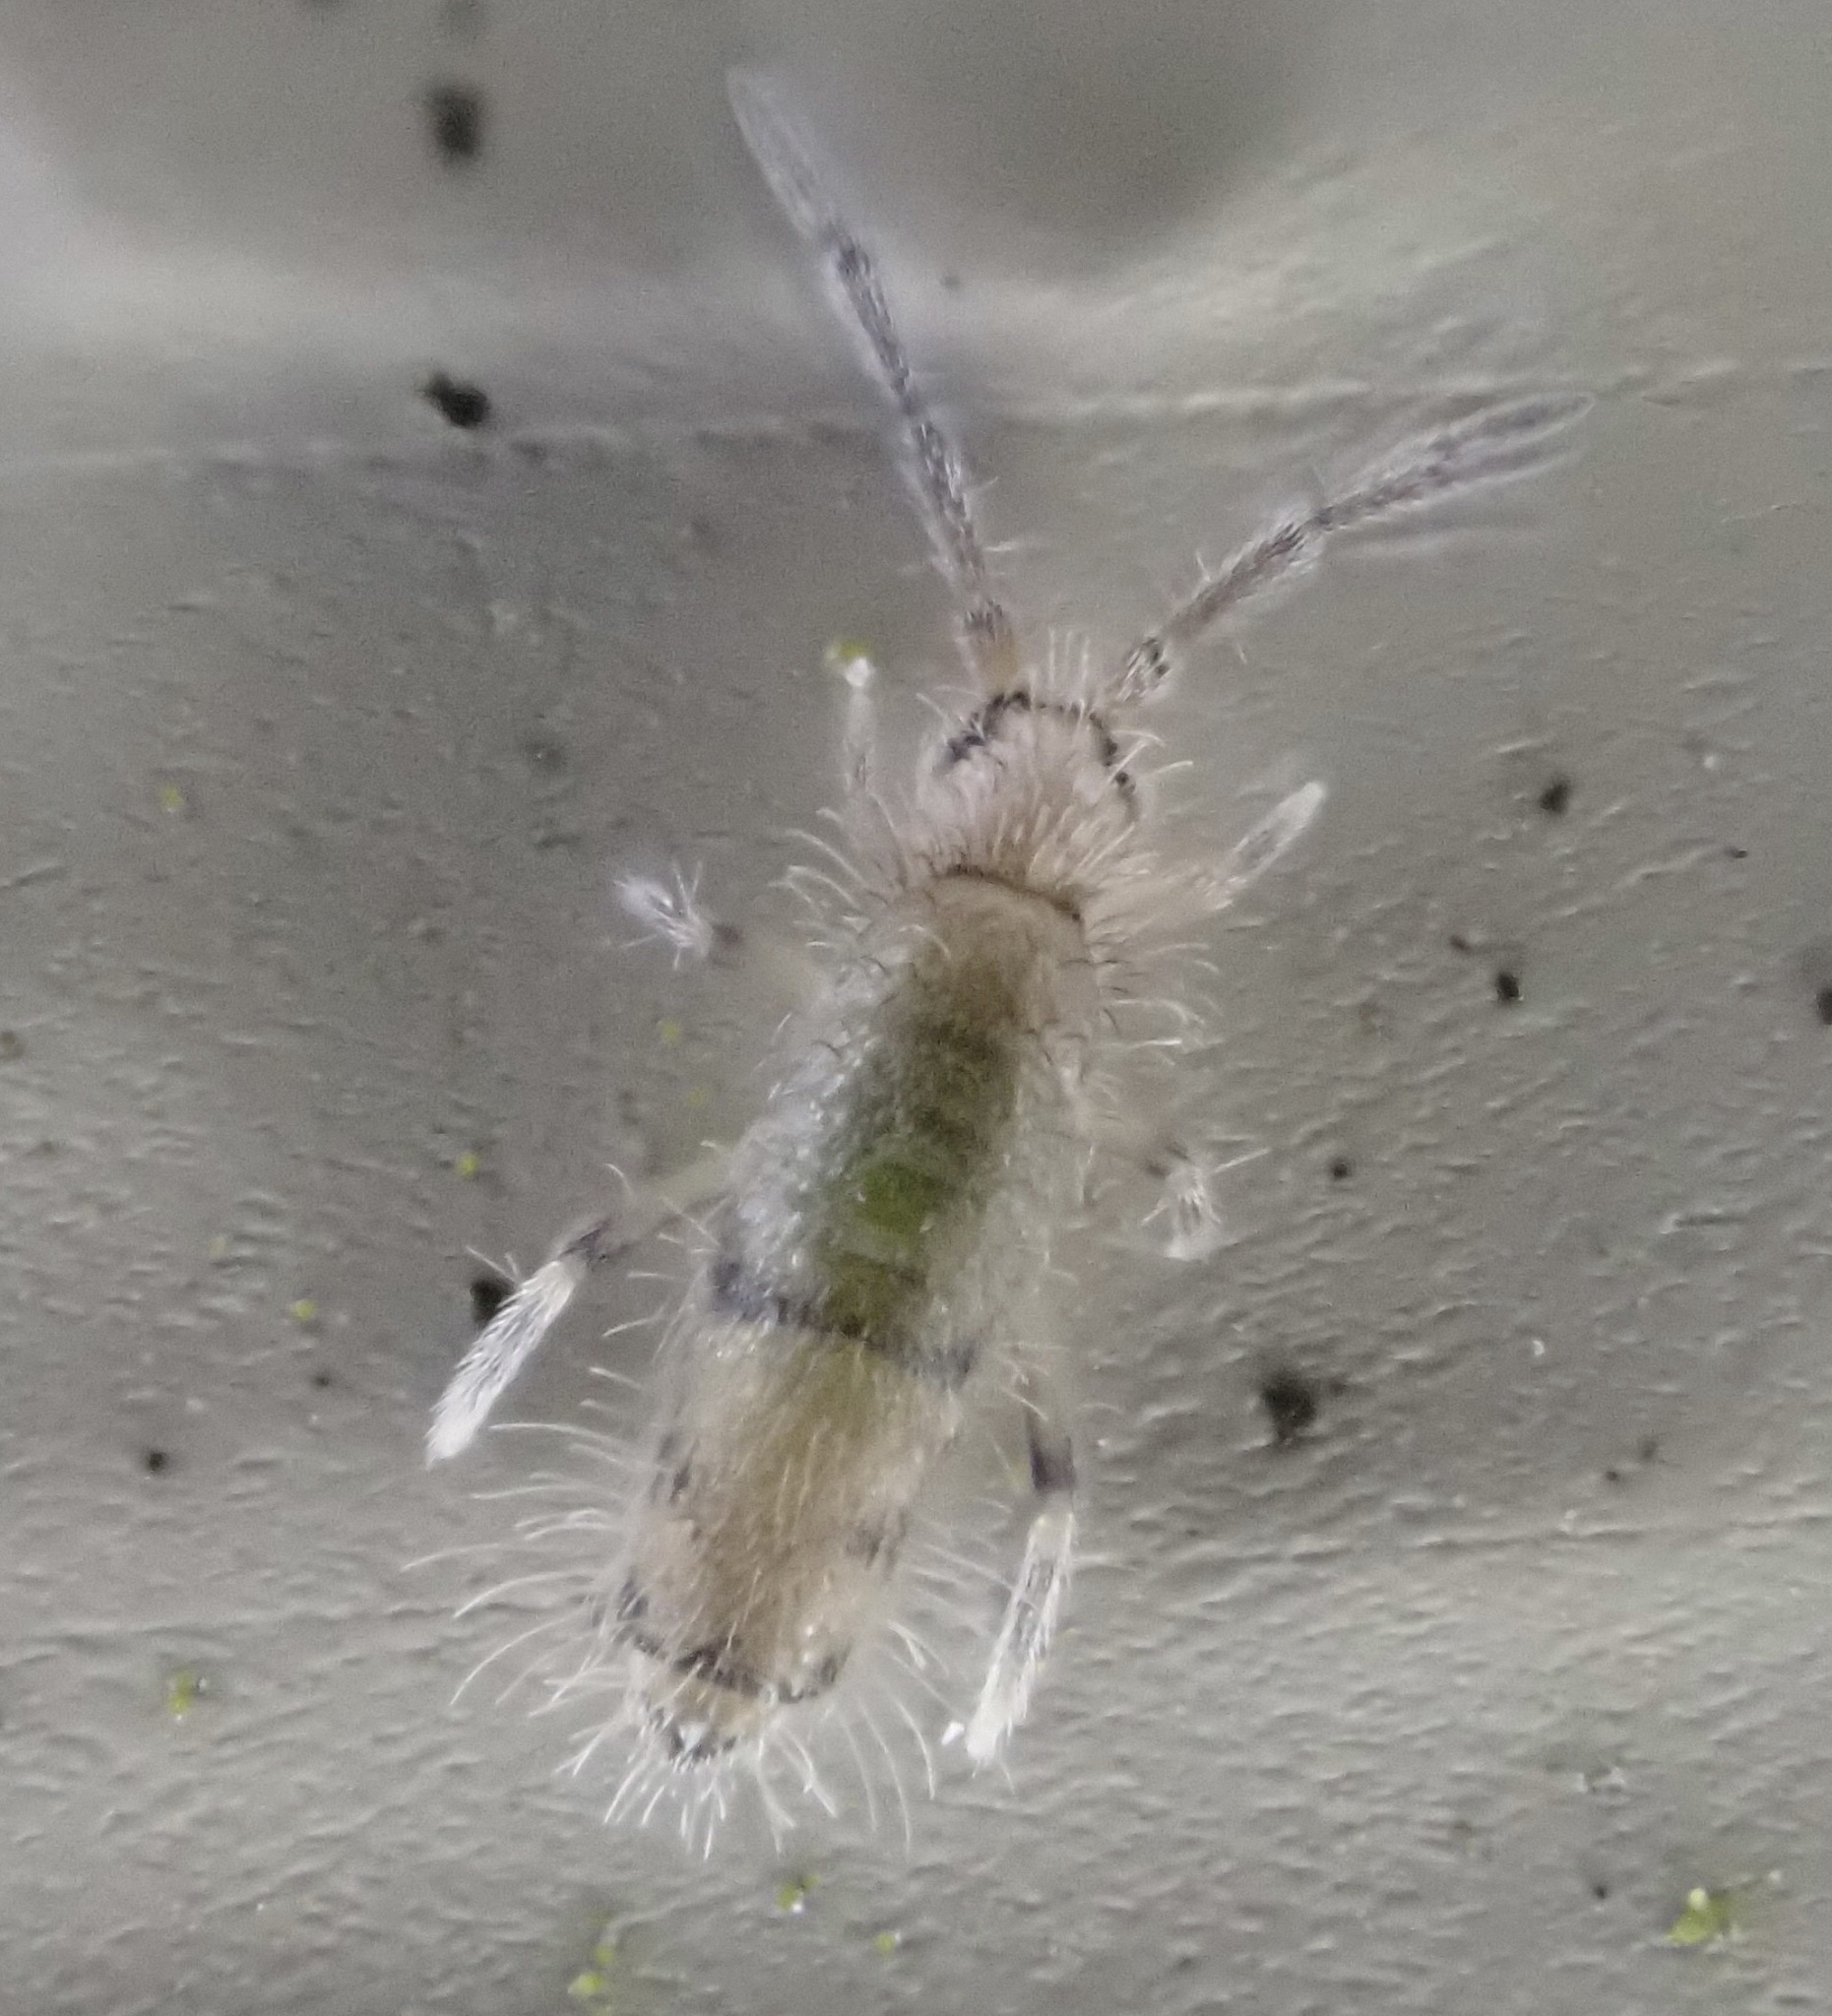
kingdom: Animalia
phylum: Arthropoda
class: Collembola
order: Entomobryomorpha
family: Entomobryidae
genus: Willowsia
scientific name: Willowsia nigromaculata
